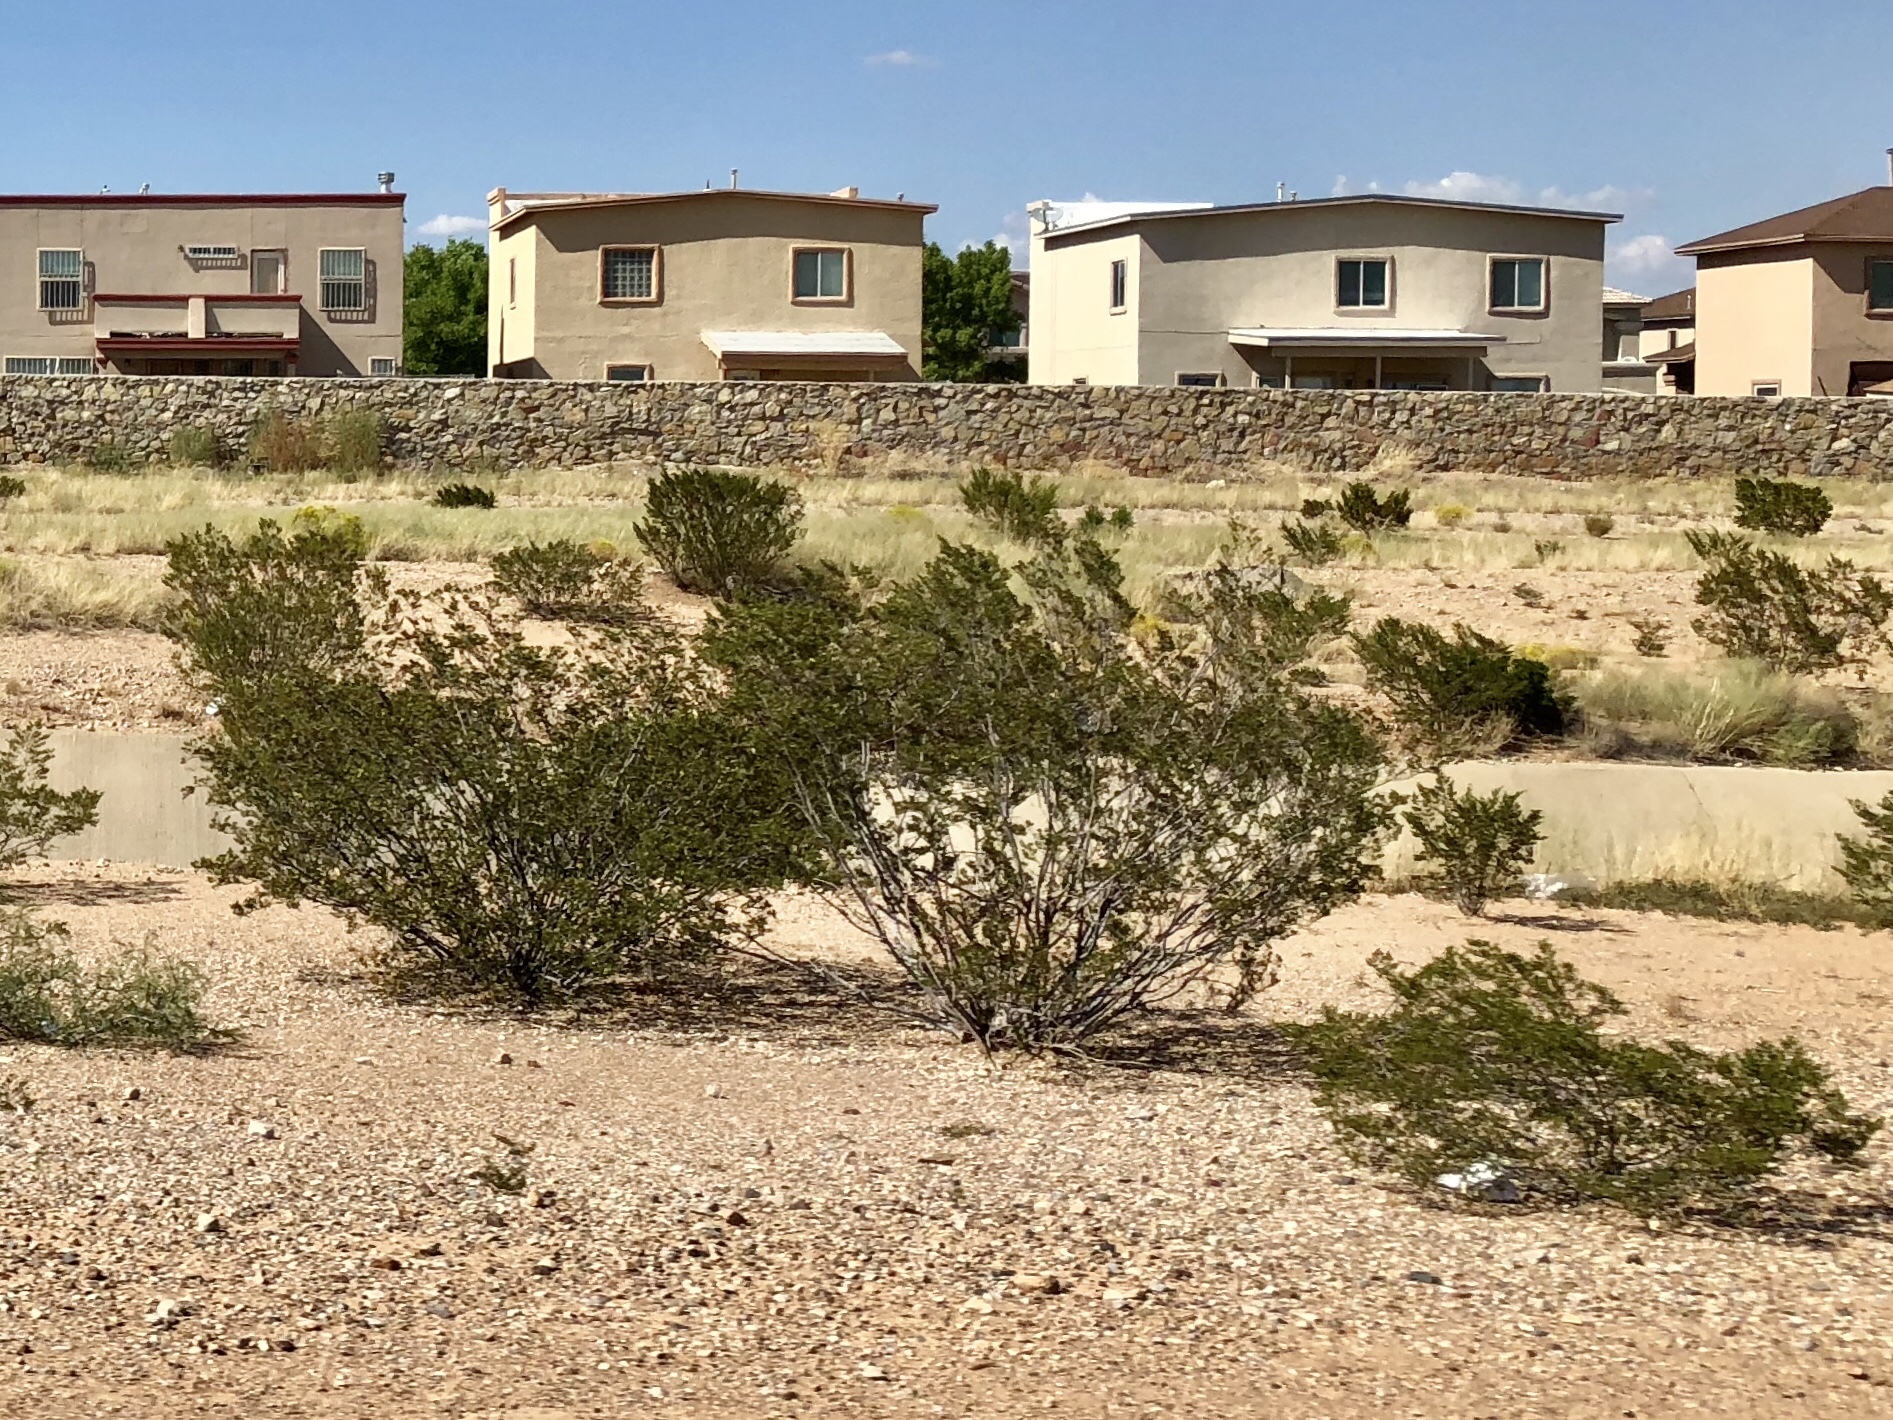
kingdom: Plantae
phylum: Tracheophyta
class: Magnoliopsida
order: Zygophyllales
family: Zygophyllaceae
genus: Larrea
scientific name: Larrea tridentata
